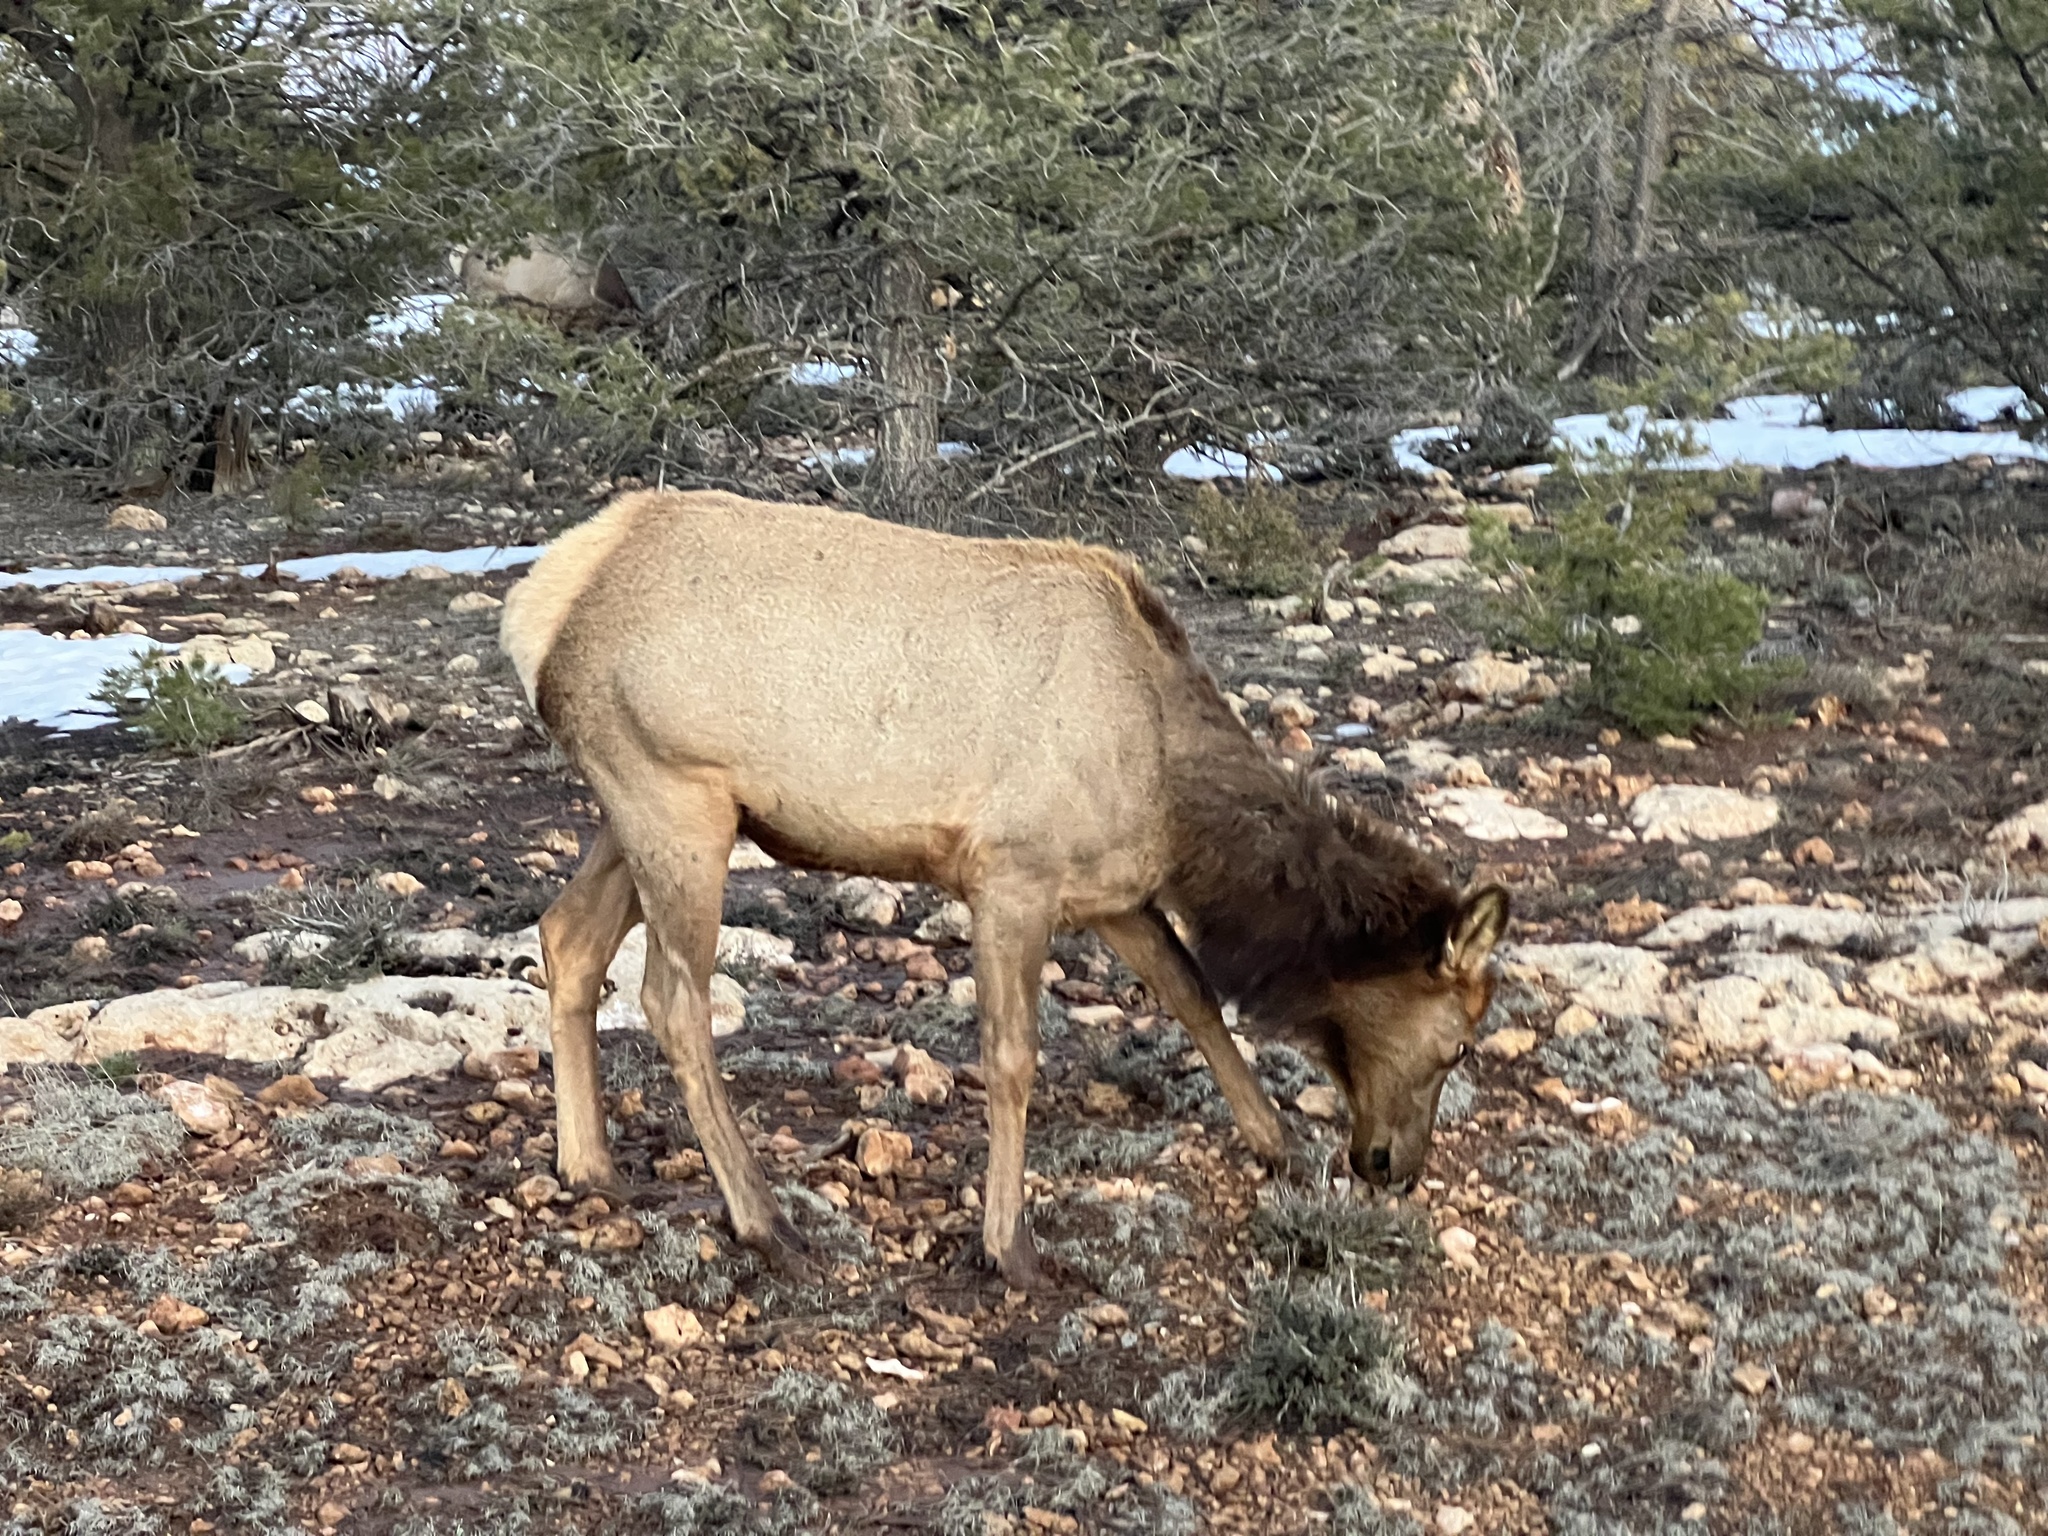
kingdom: Animalia
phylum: Chordata
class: Mammalia
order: Artiodactyla
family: Cervidae
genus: Cervus
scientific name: Cervus elaphus
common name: Red deer
